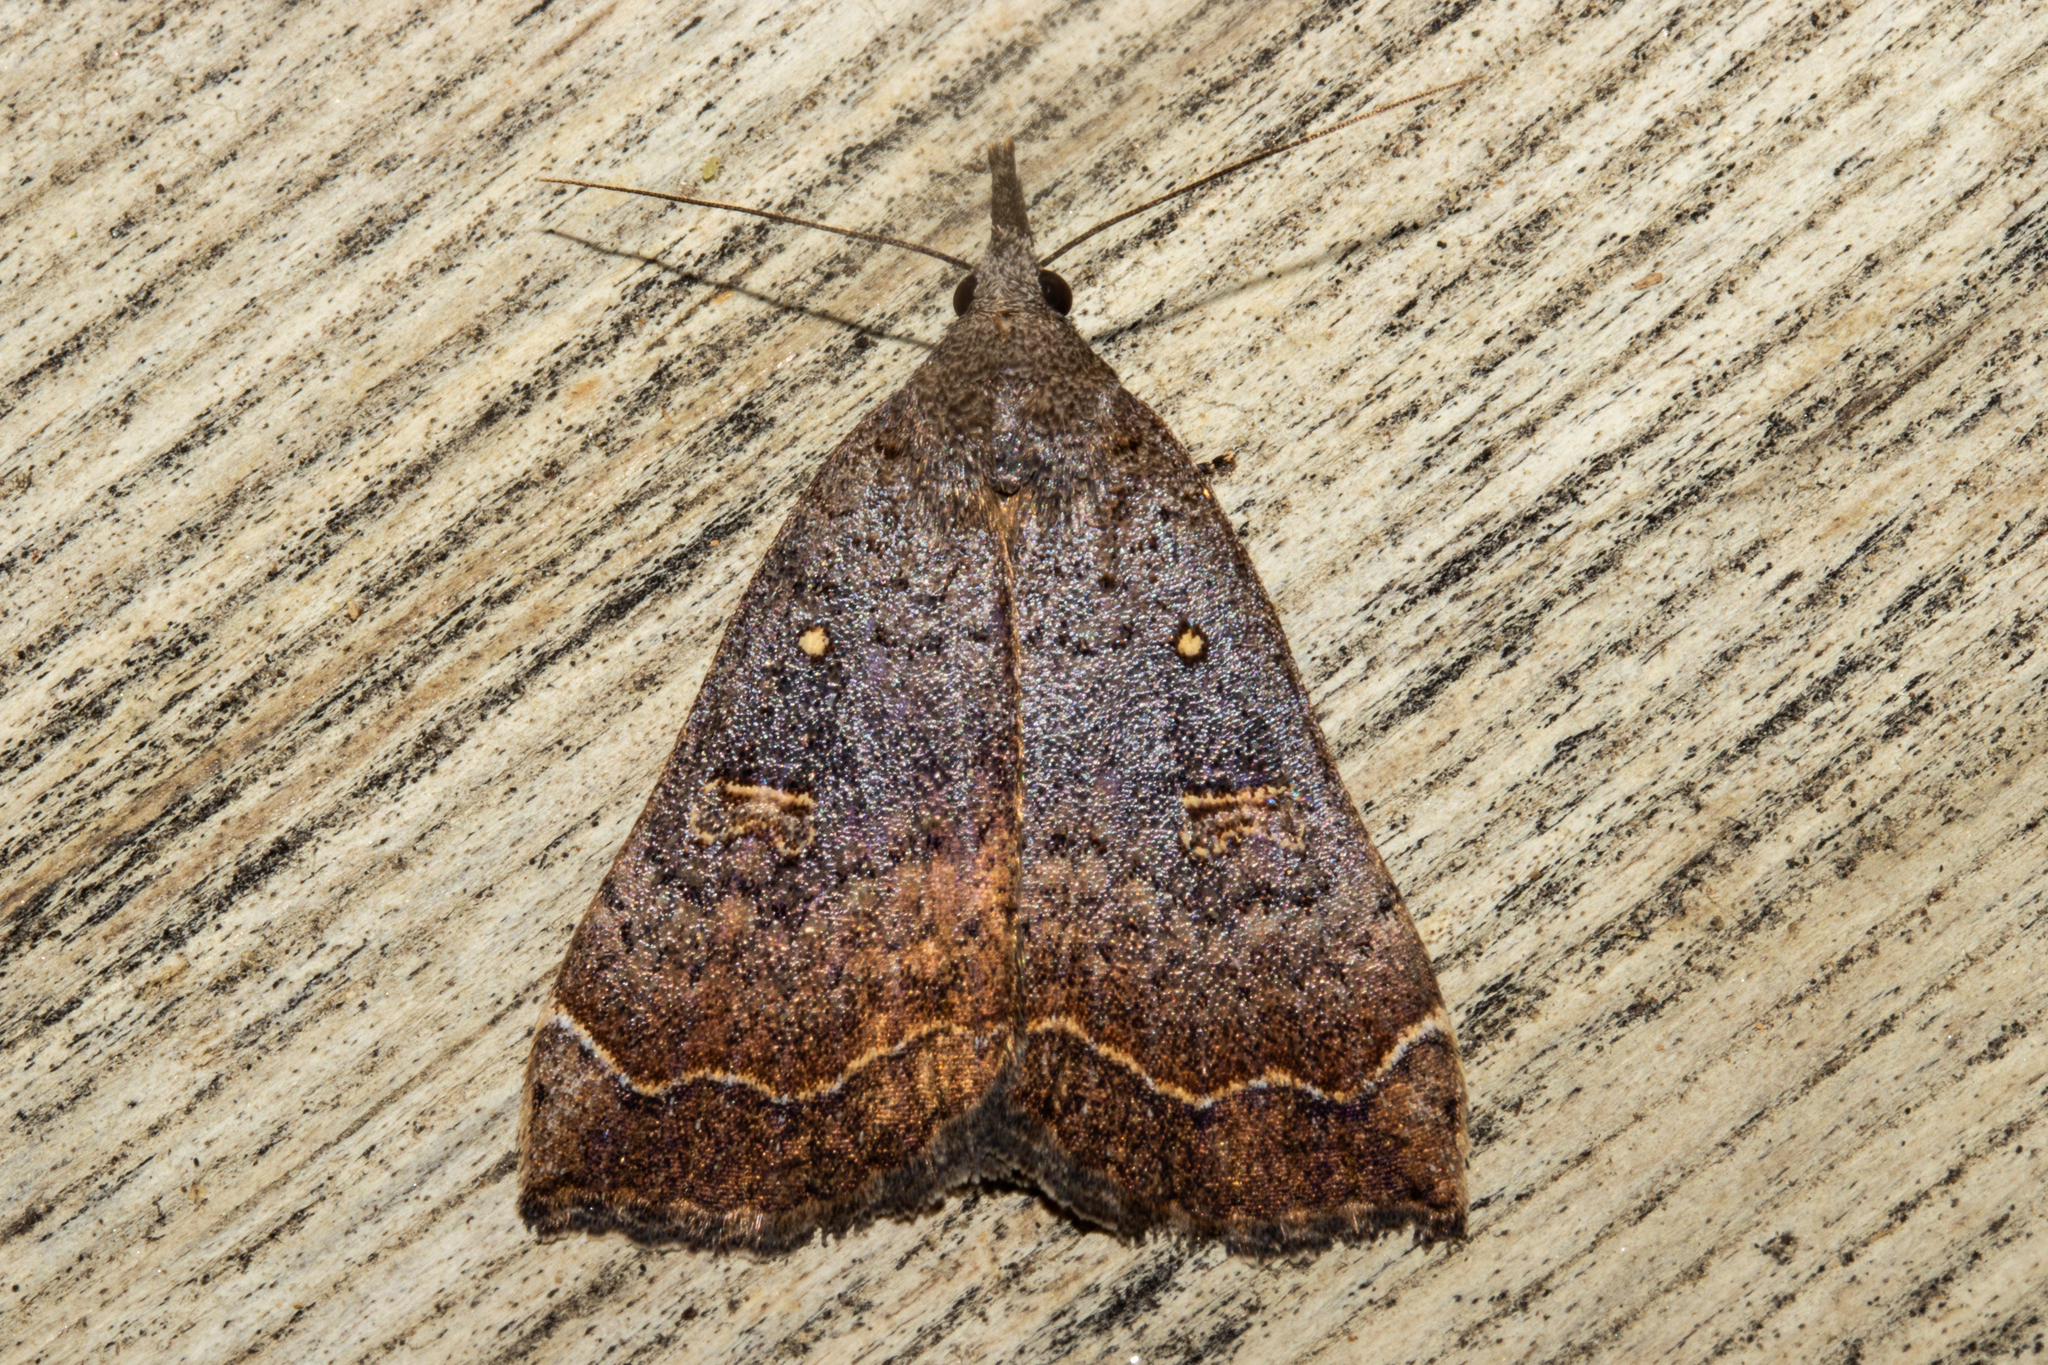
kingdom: Animalia
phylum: Arthropoda
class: Insecta
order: Lepidoptera
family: Erebidae
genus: Rhapsa
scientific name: Rhapsa scotosialis
